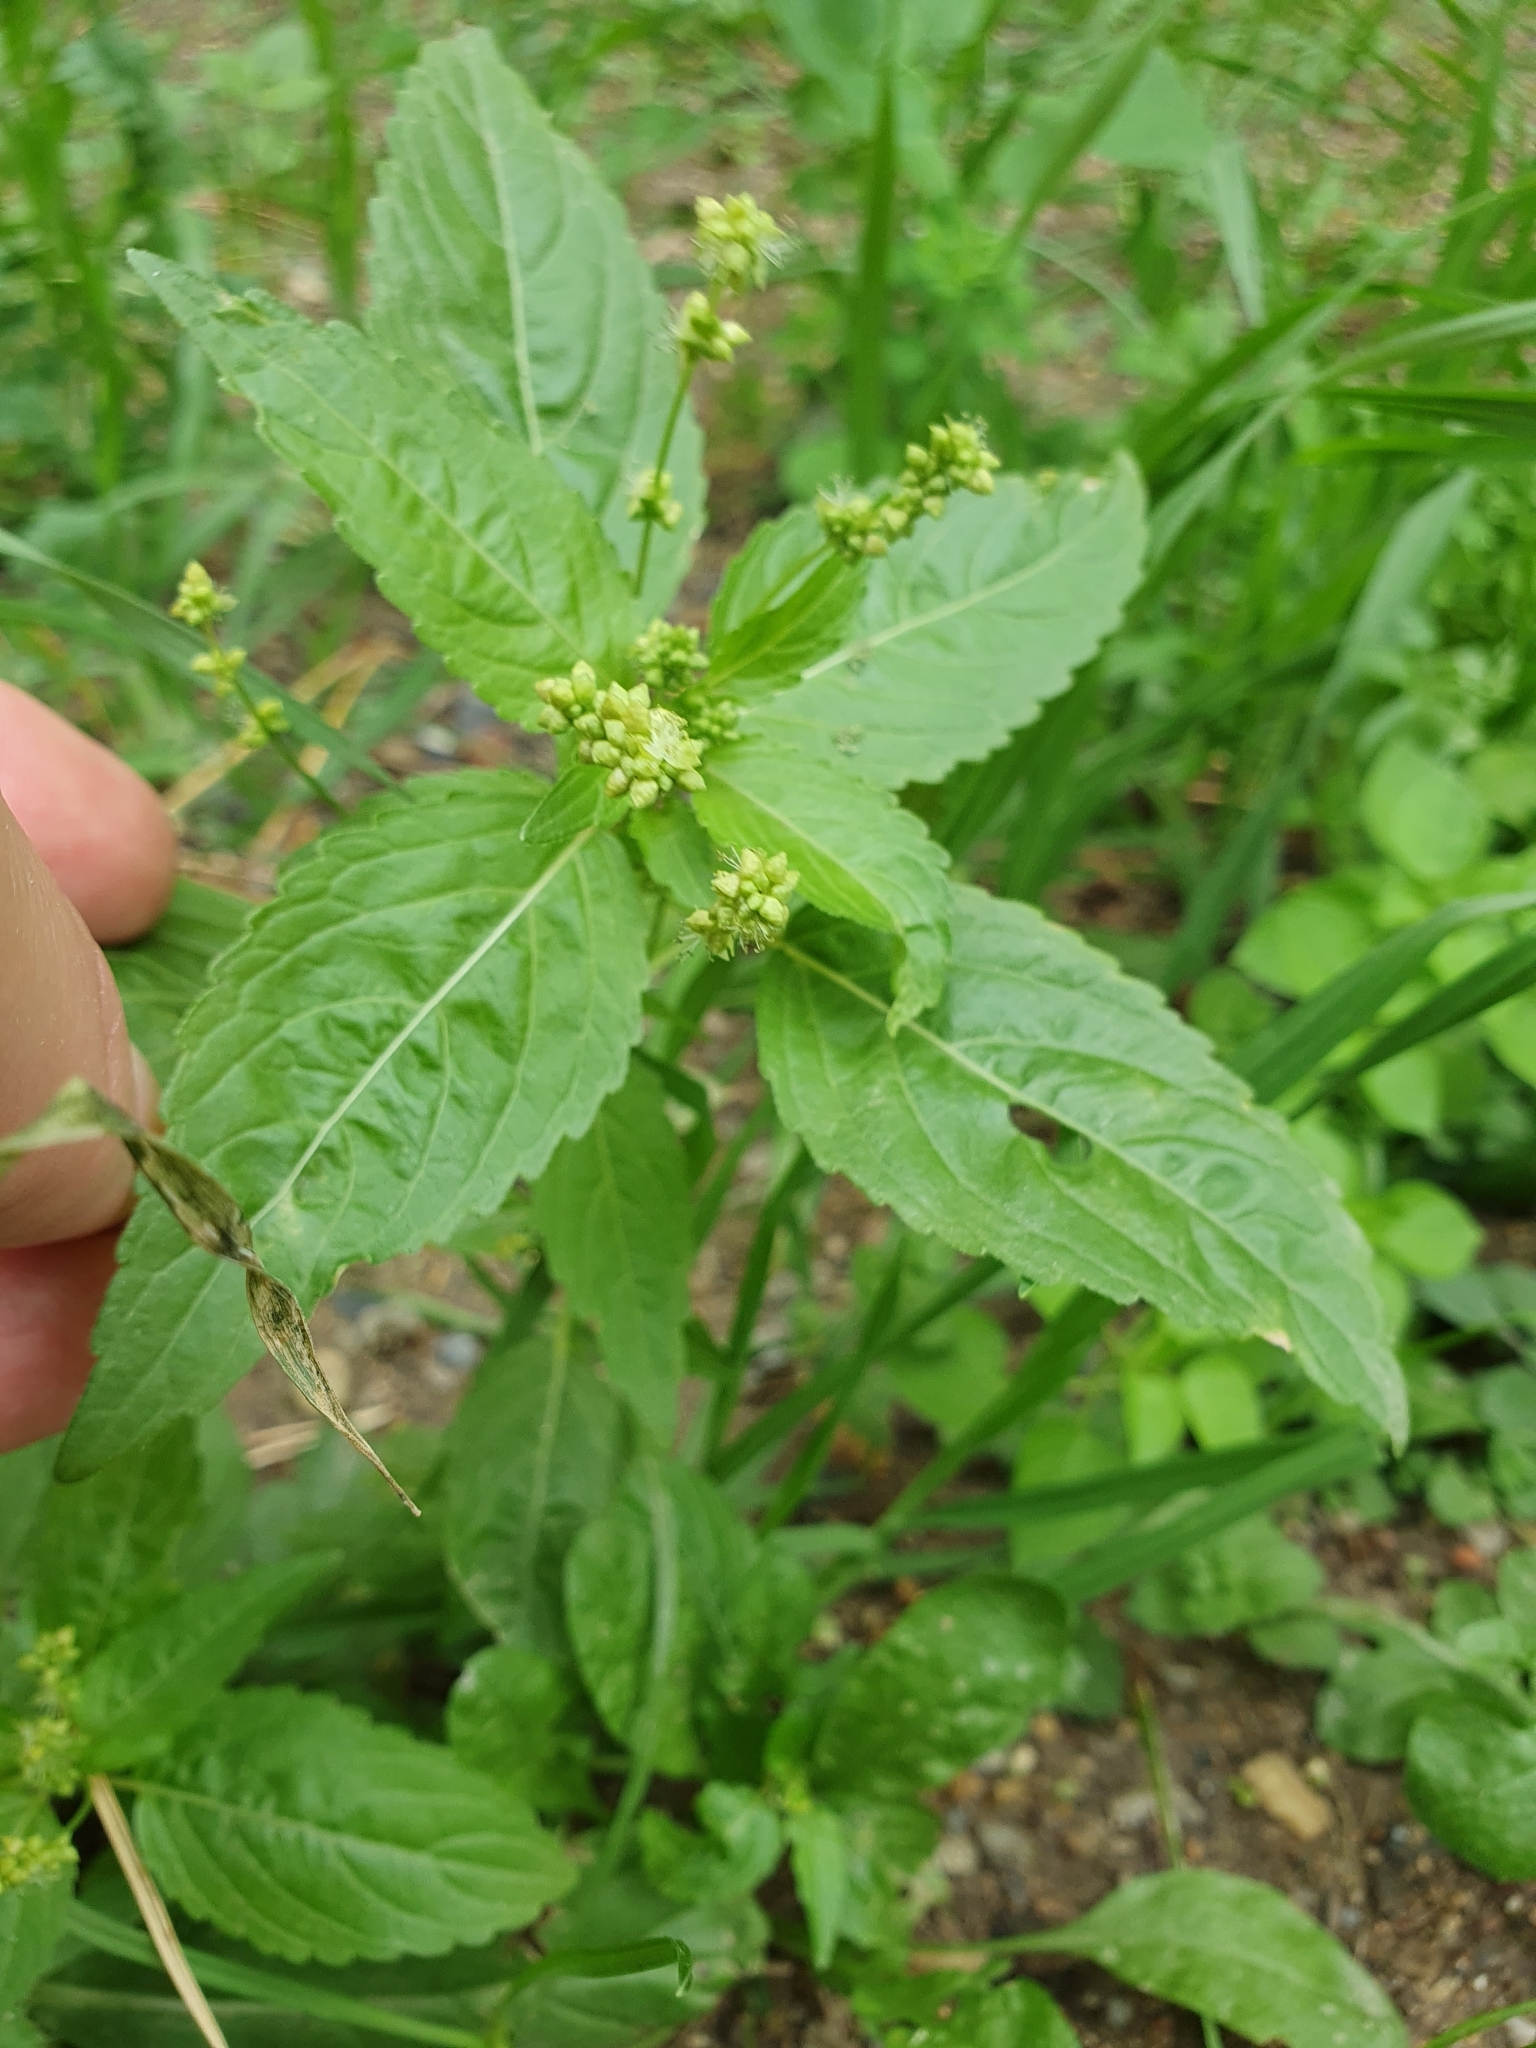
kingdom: Plantae
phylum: Tracheophyta
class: Magnoliopsida
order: Malpighiales
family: Euphorbiaceae
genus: Mercurialis
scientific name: Mercurialis annua
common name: Annual mercury
